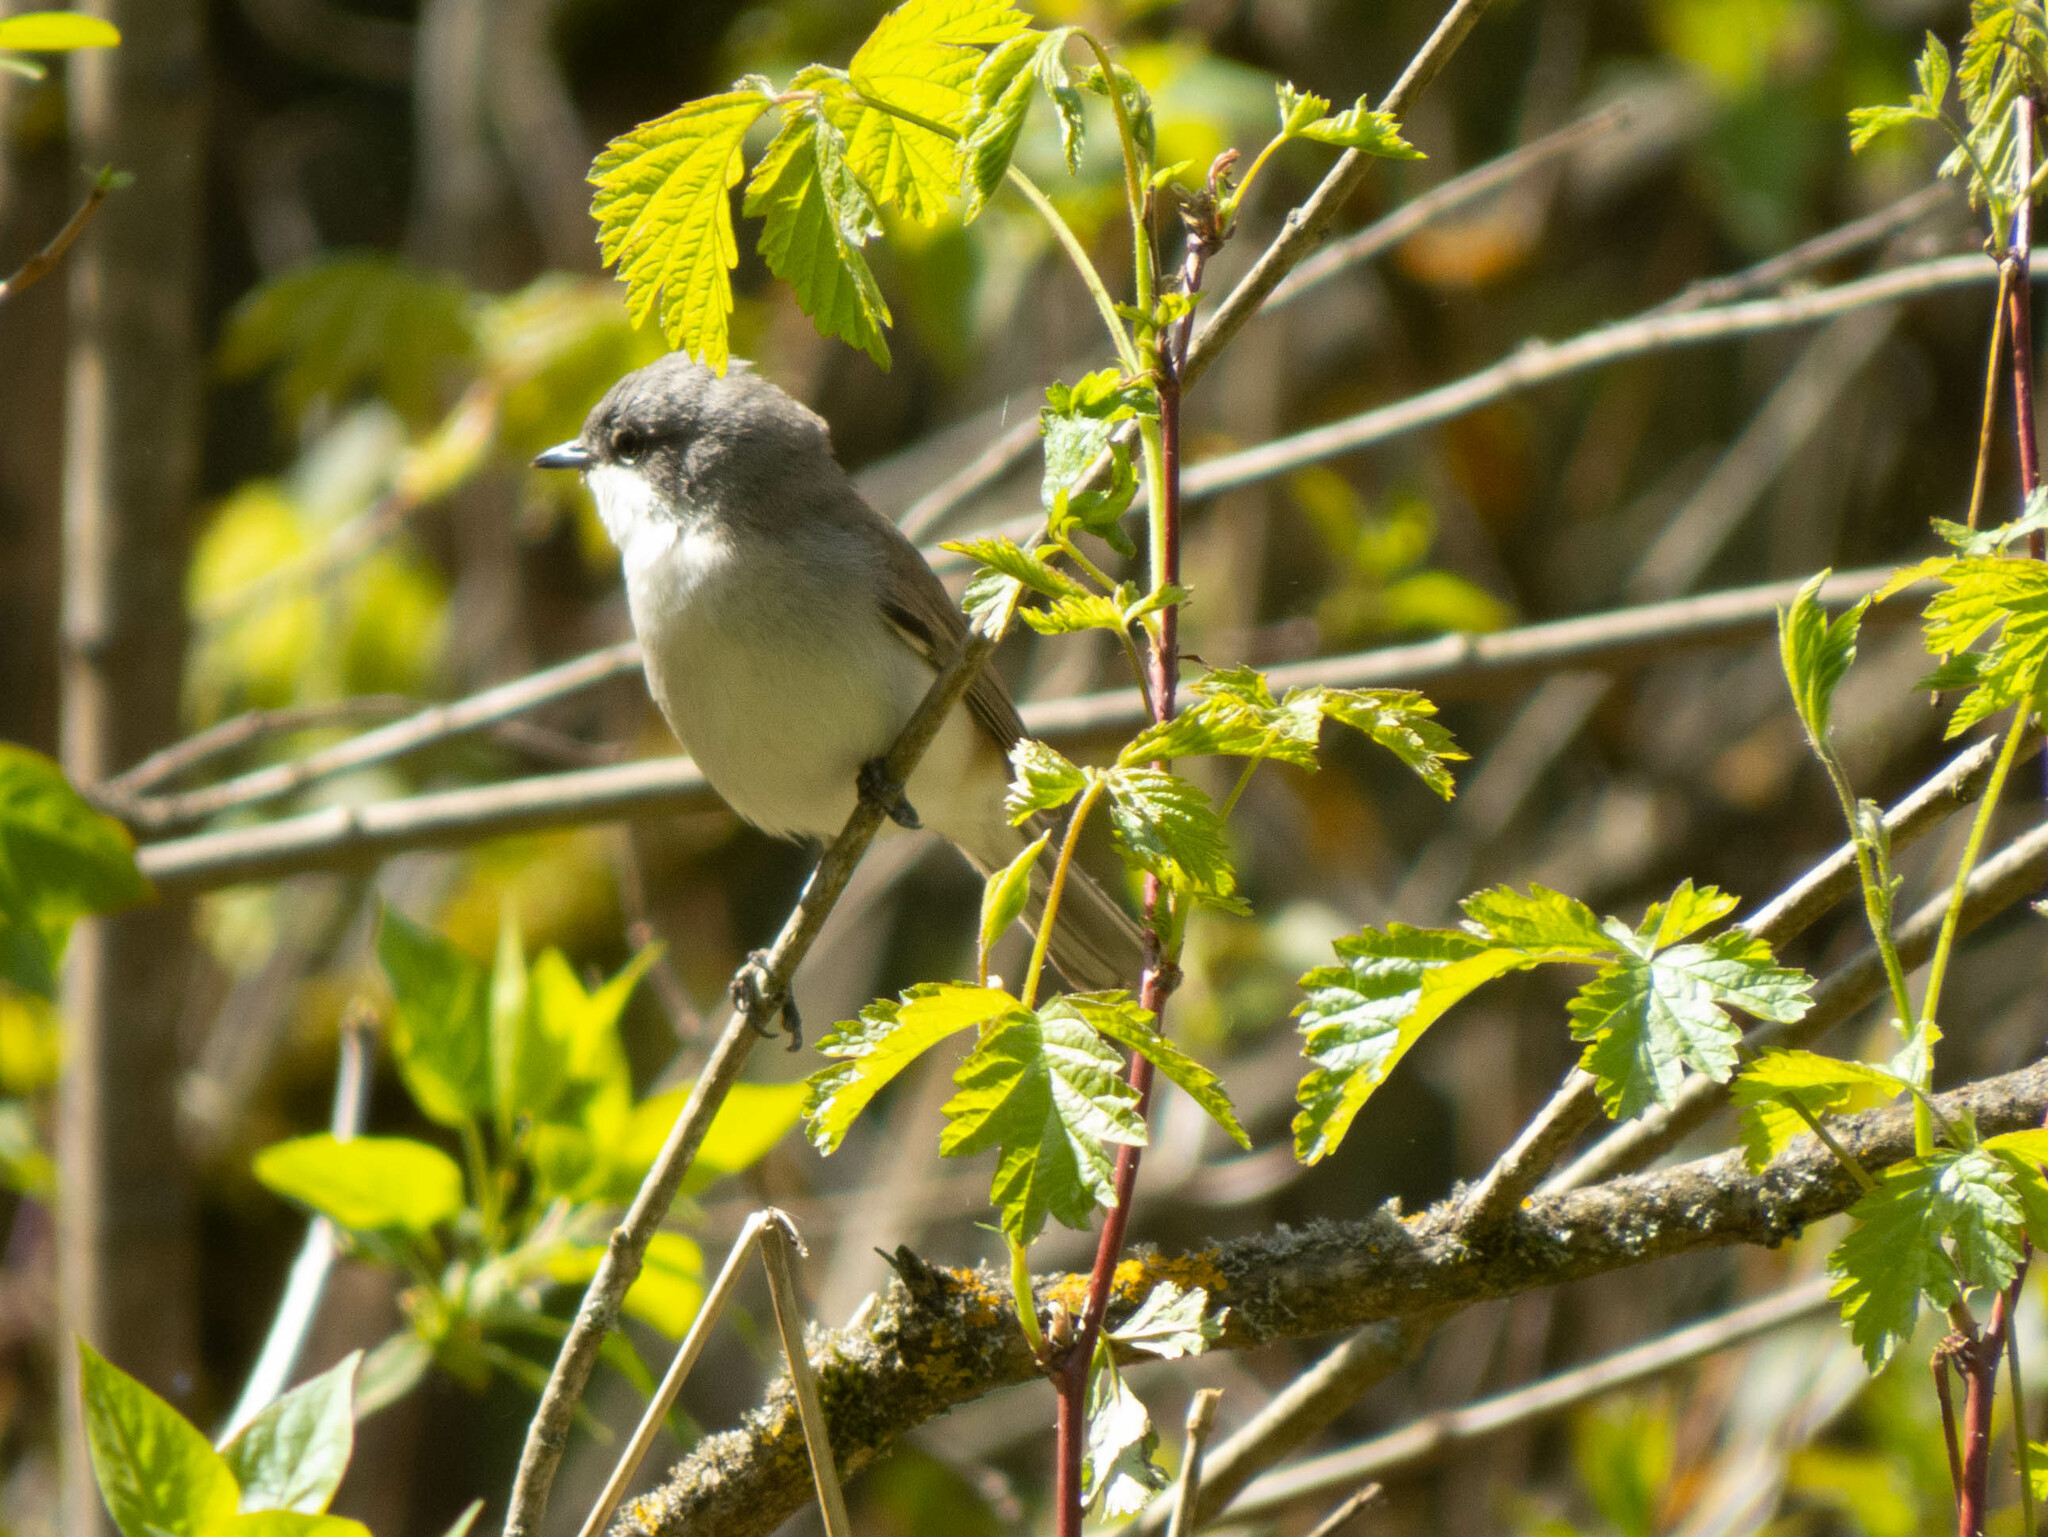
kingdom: Animalia
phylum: Chordata
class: Aves
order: Passeriformes
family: Sylviidae
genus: Sylvia
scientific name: Sylvia curruca
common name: Lesser whitethroat
